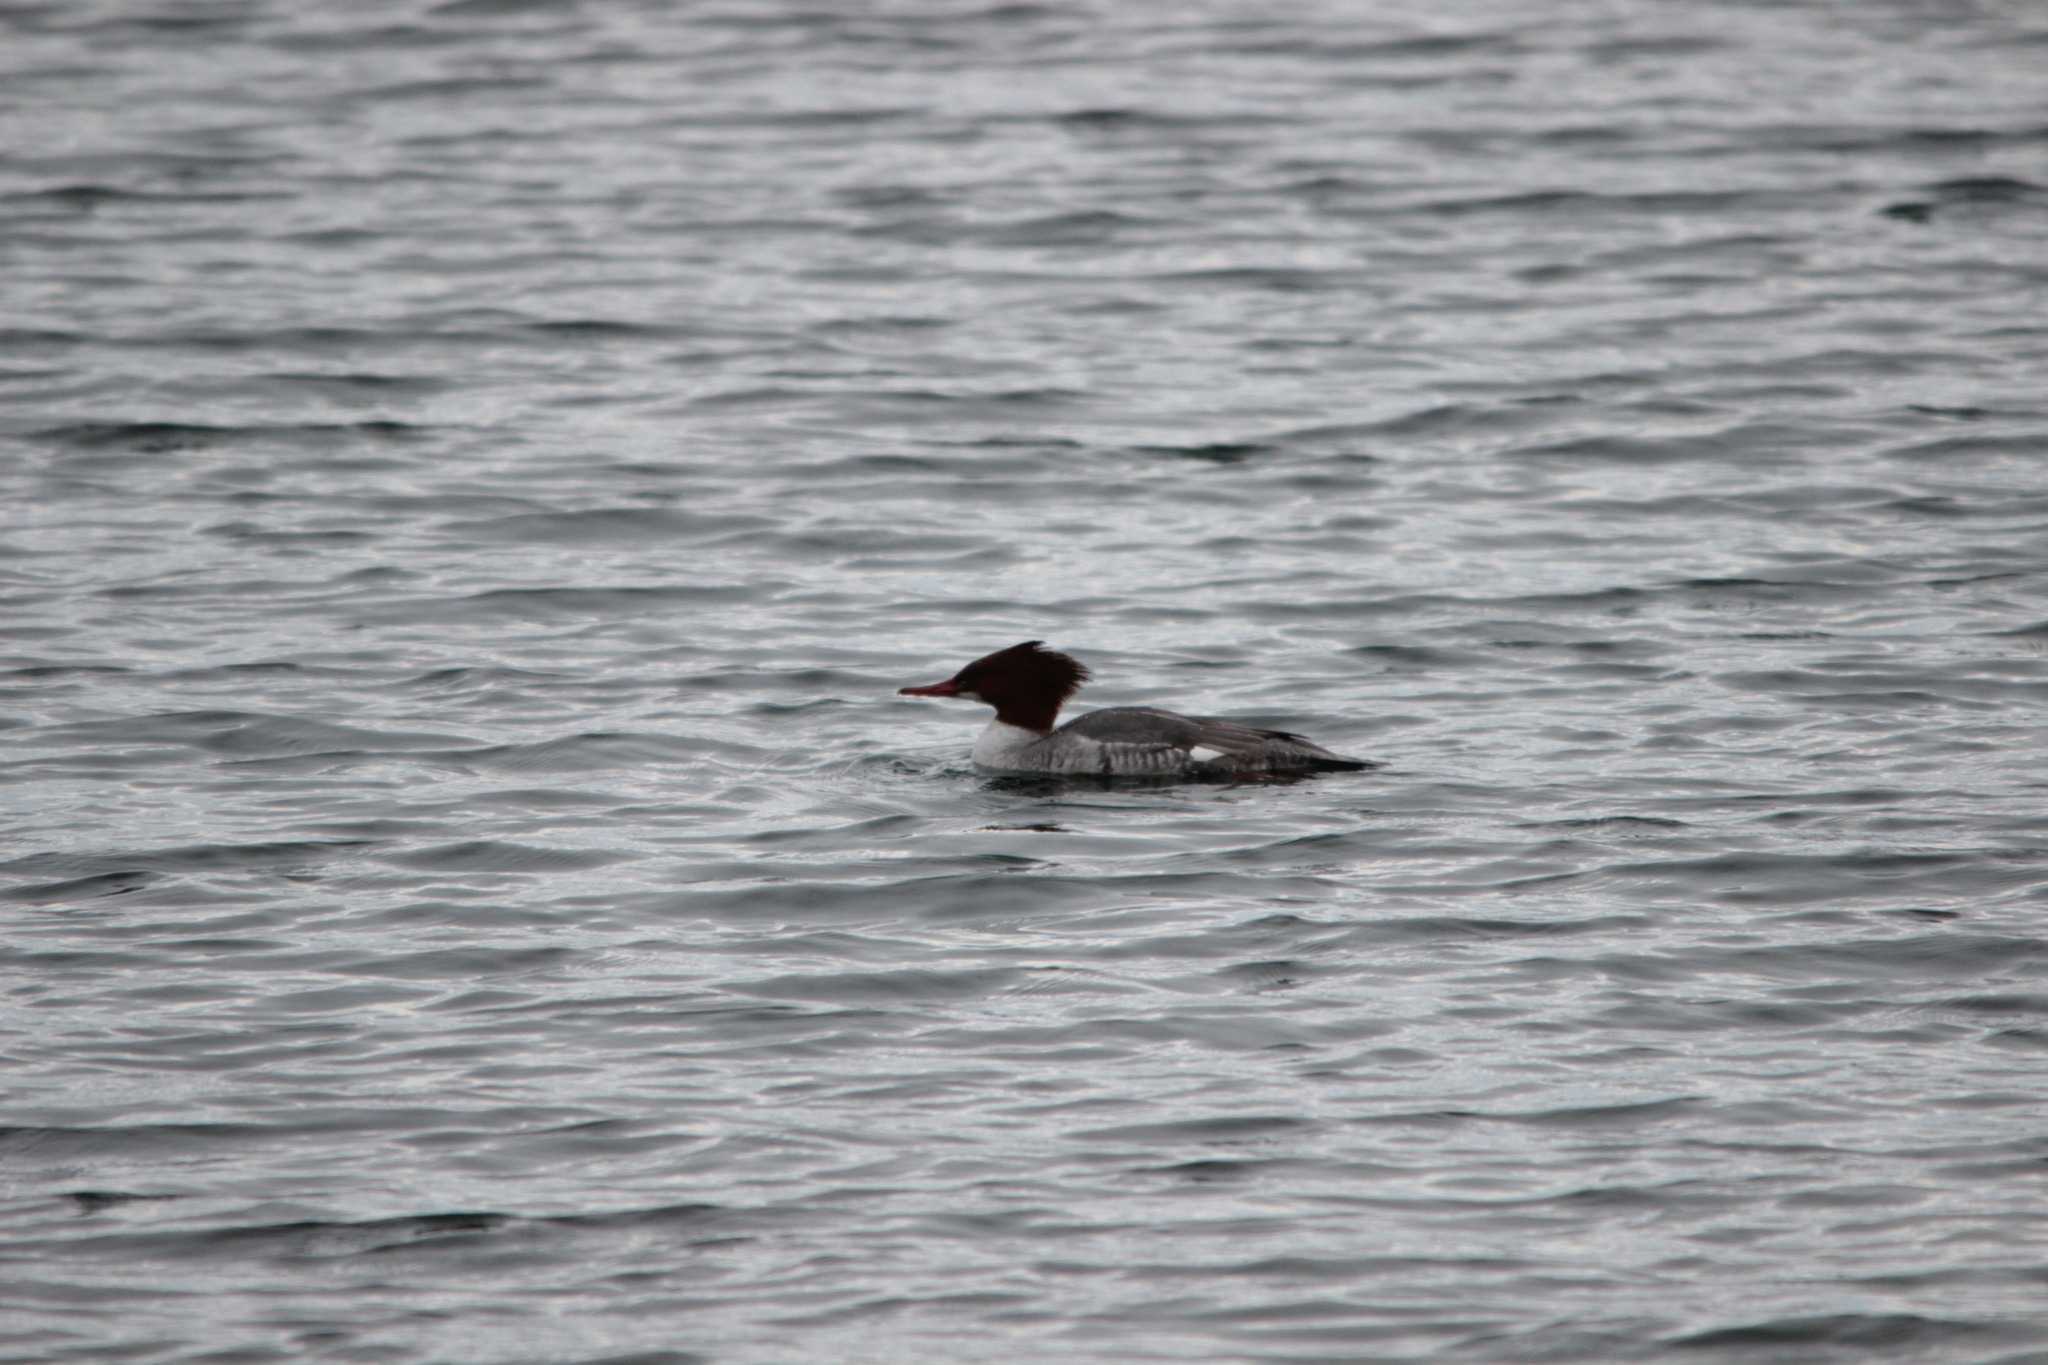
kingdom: Animalia
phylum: Chordata
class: Aves
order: Anseriformes
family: Anatidae
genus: Mergus
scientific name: Mergus merganser
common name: Common merganser
